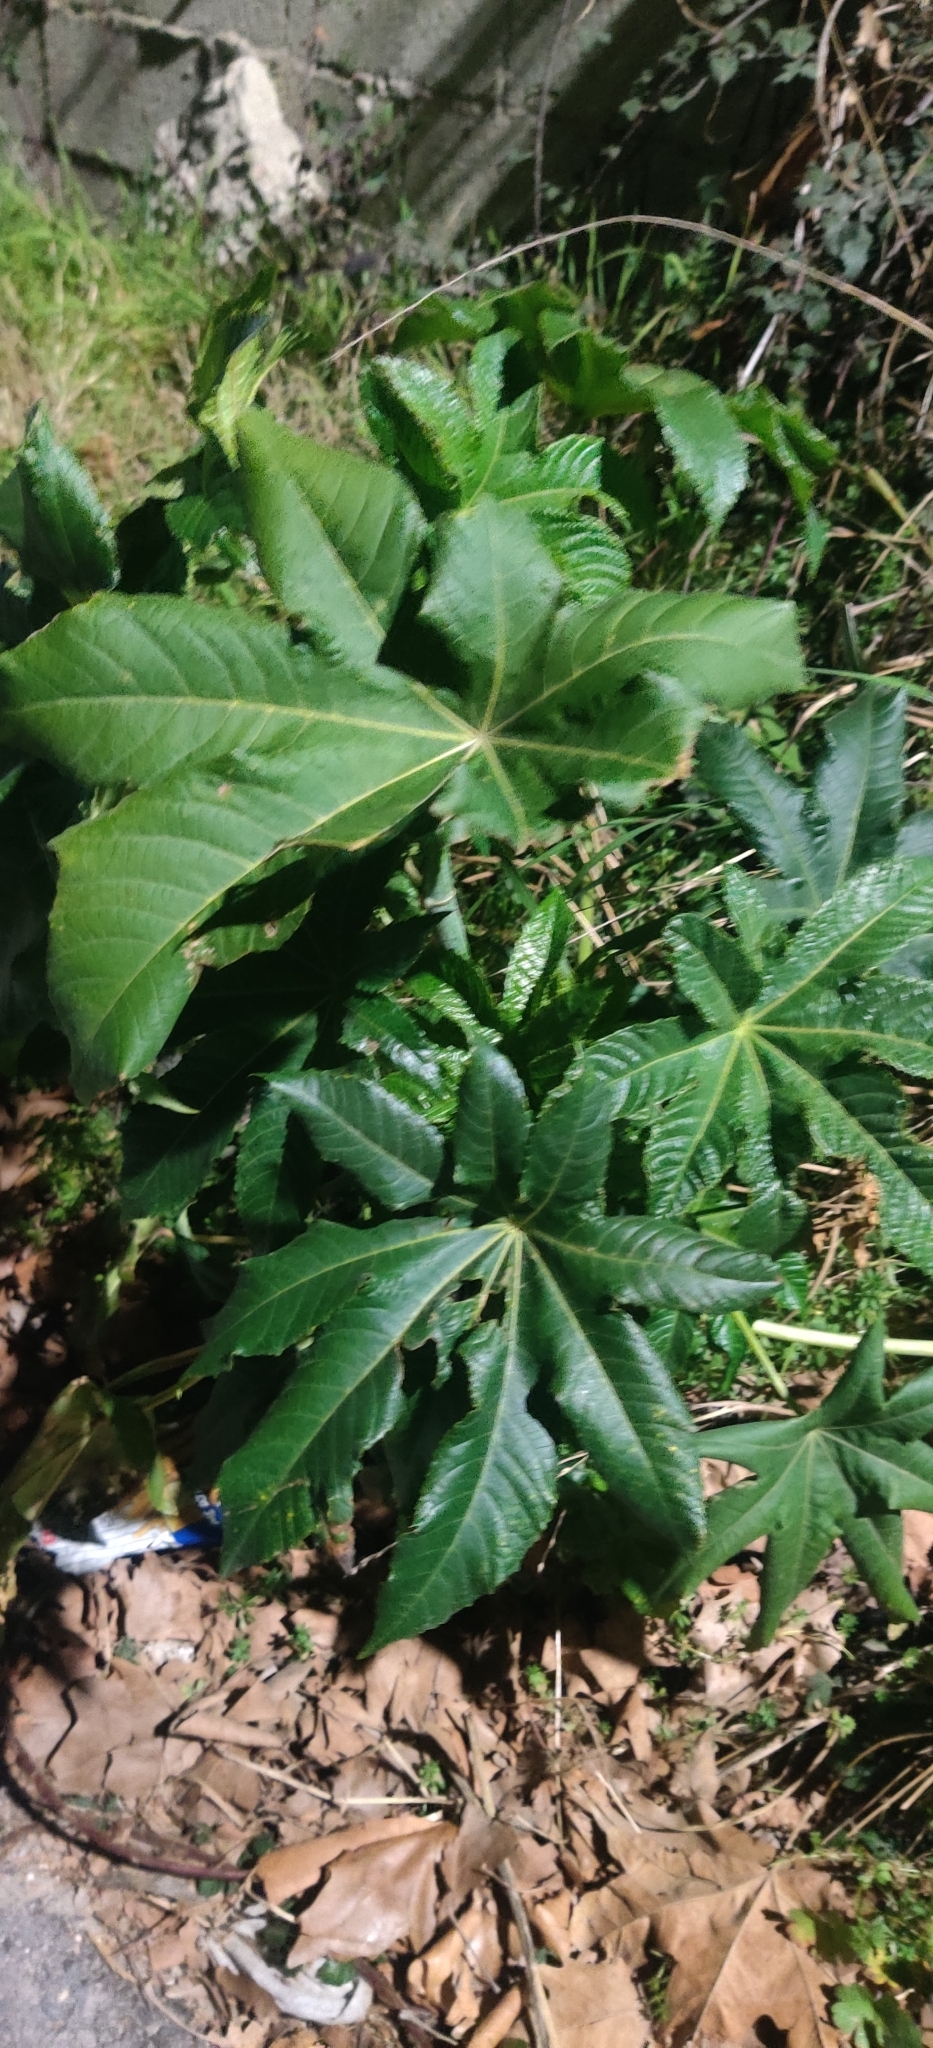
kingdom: Plantae
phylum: Tracheophyta
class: Magnoliopsida
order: Malpighiales
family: Euphorbiaceae
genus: Ricinus
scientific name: Ricinus communis
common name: Castor-oil-plant
